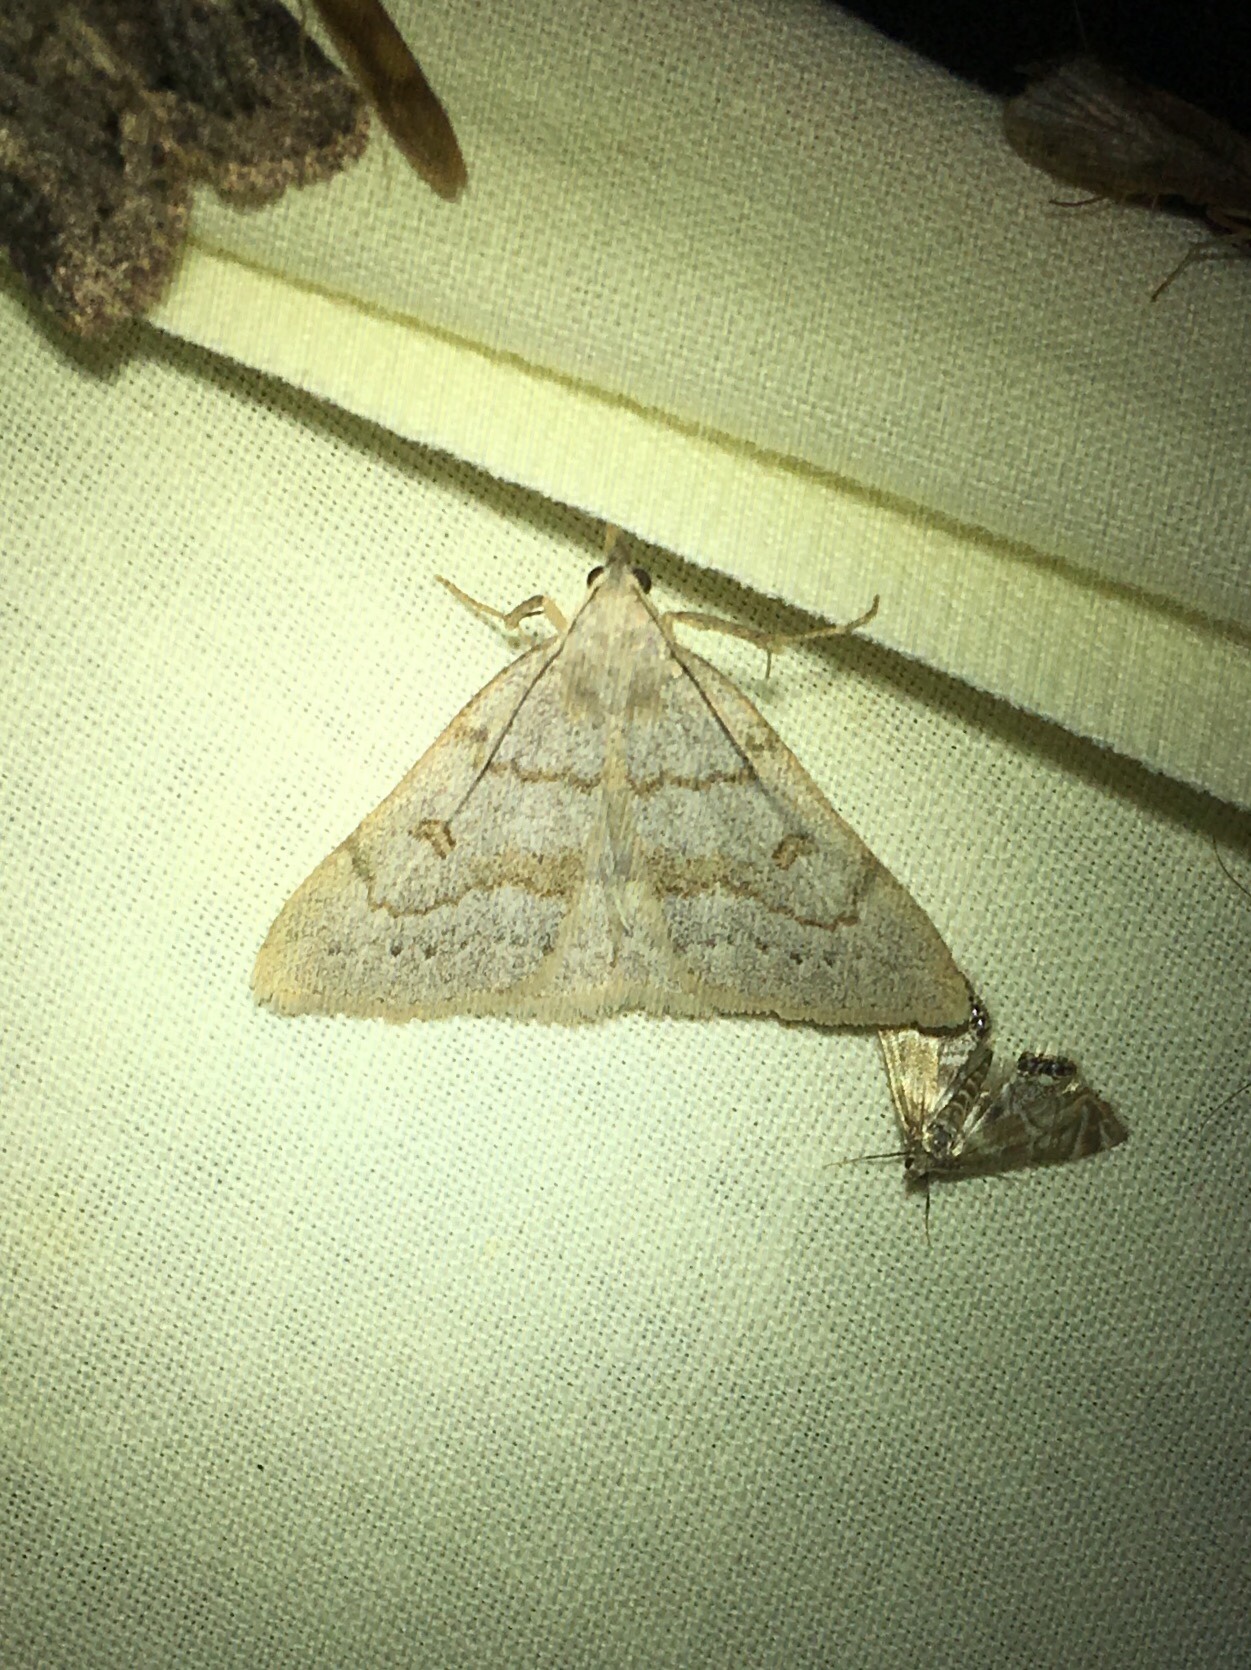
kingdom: Animalia
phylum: Arthropoda
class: Insecta
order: Lepidoptera
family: Erebidae
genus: Macrochilo
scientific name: Macrochilo morbidalis
